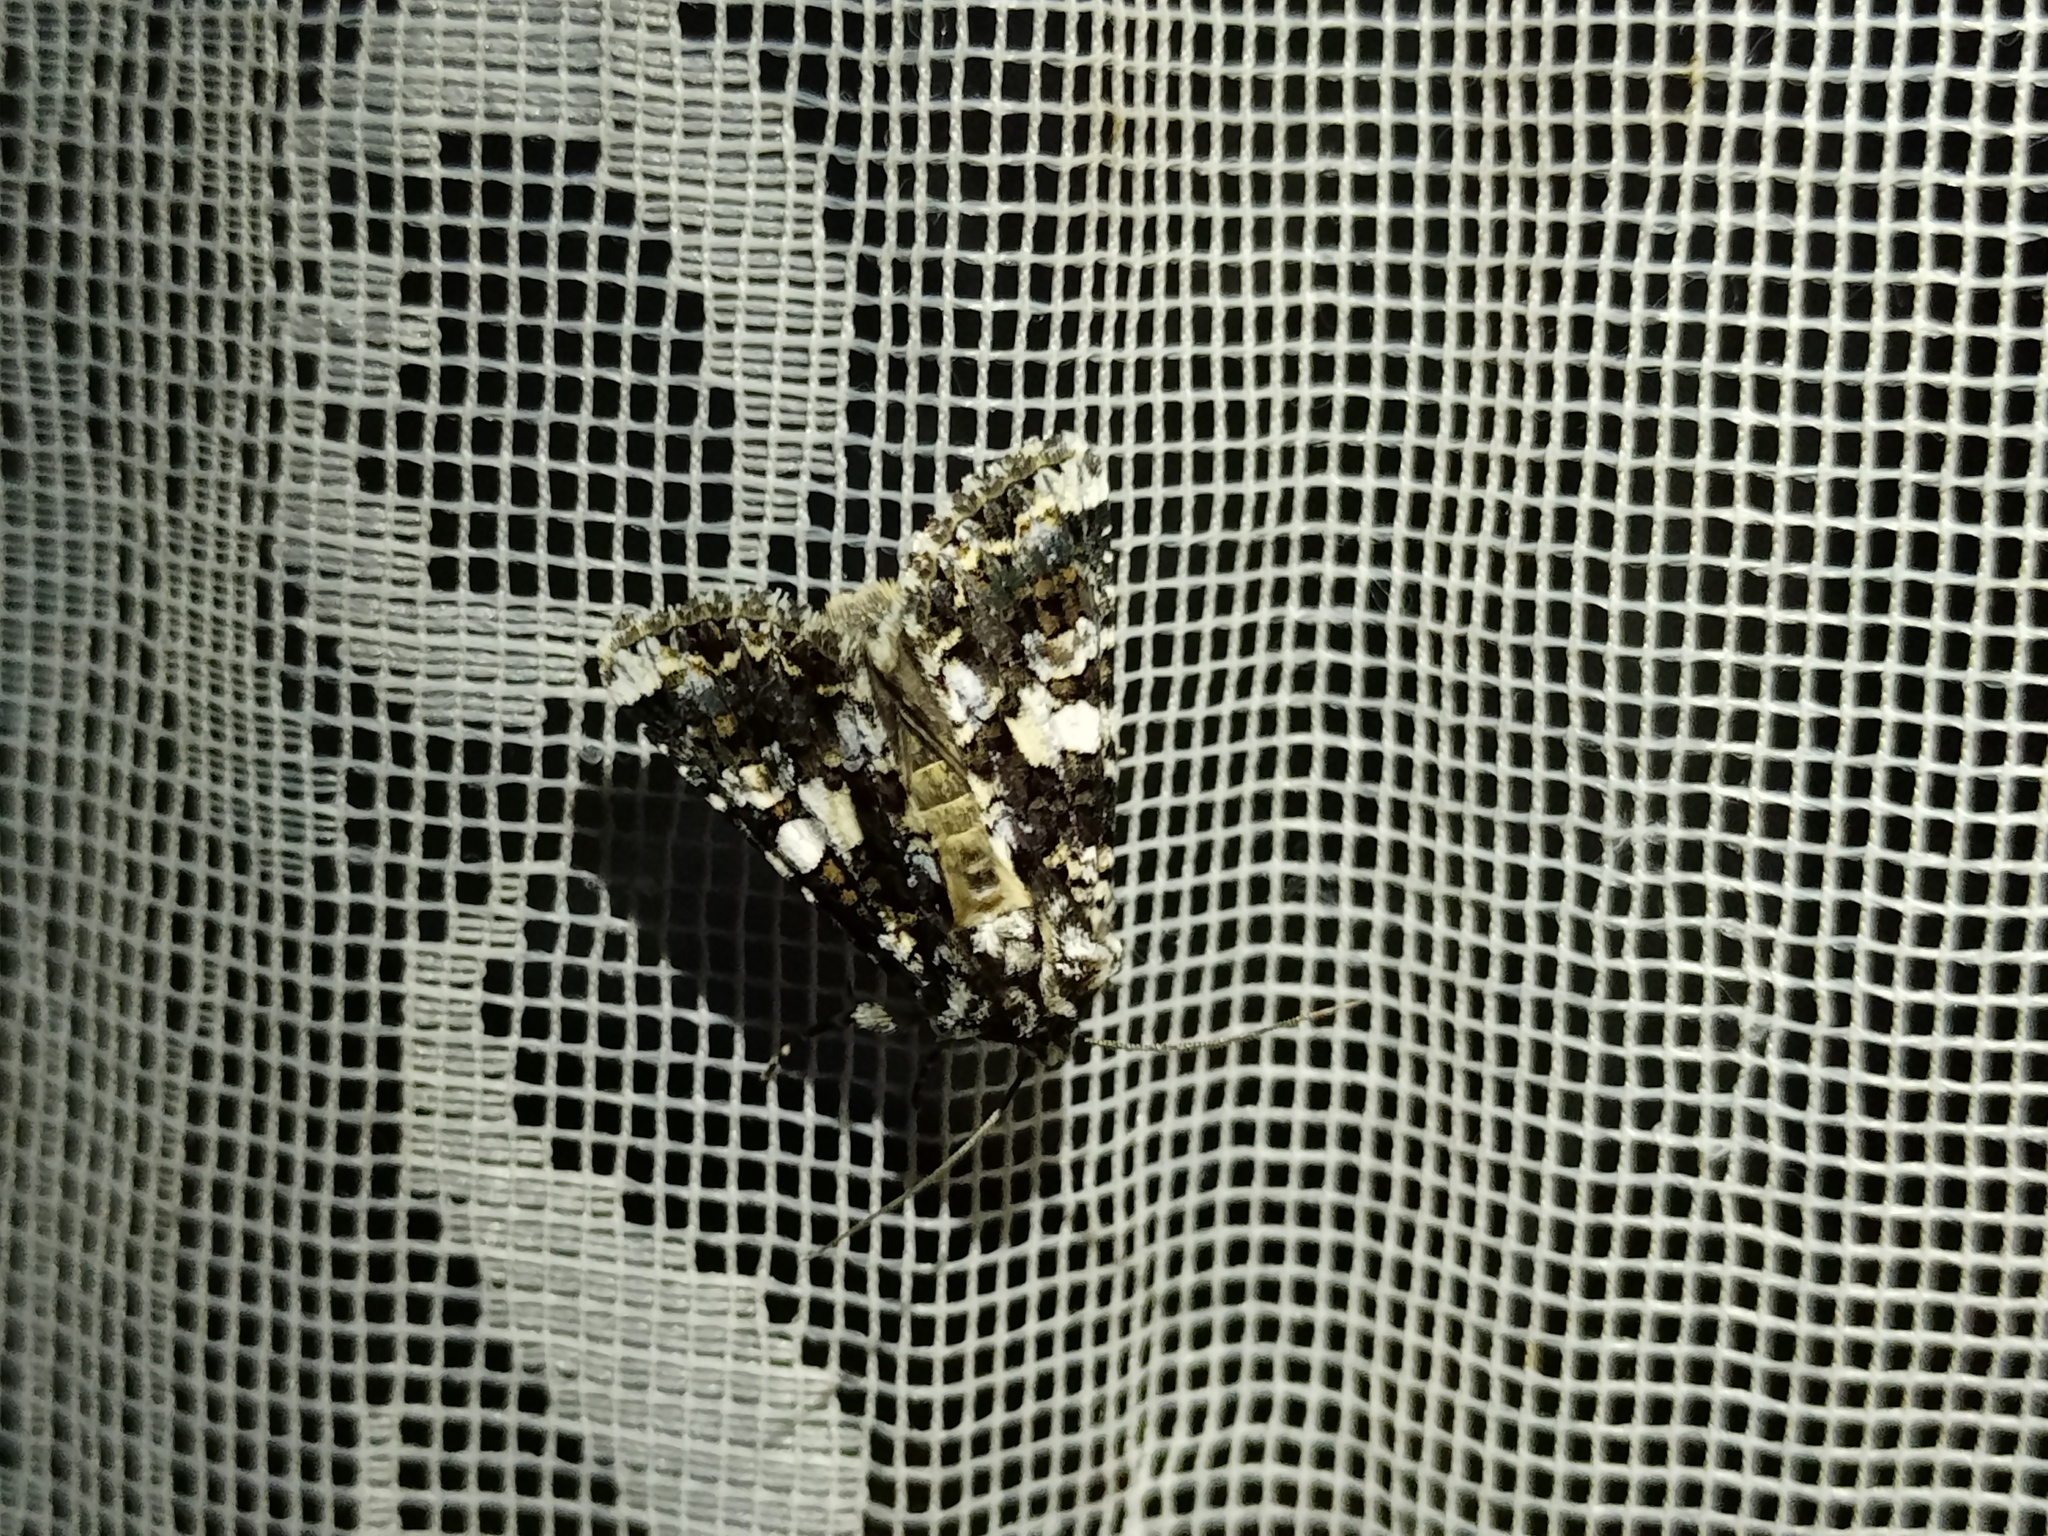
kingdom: Animalia
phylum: Arthropoda
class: Insecta
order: Lepidoptera
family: Noctuidae
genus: Hadena
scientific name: Hadena confusa
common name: Marbled coronet
